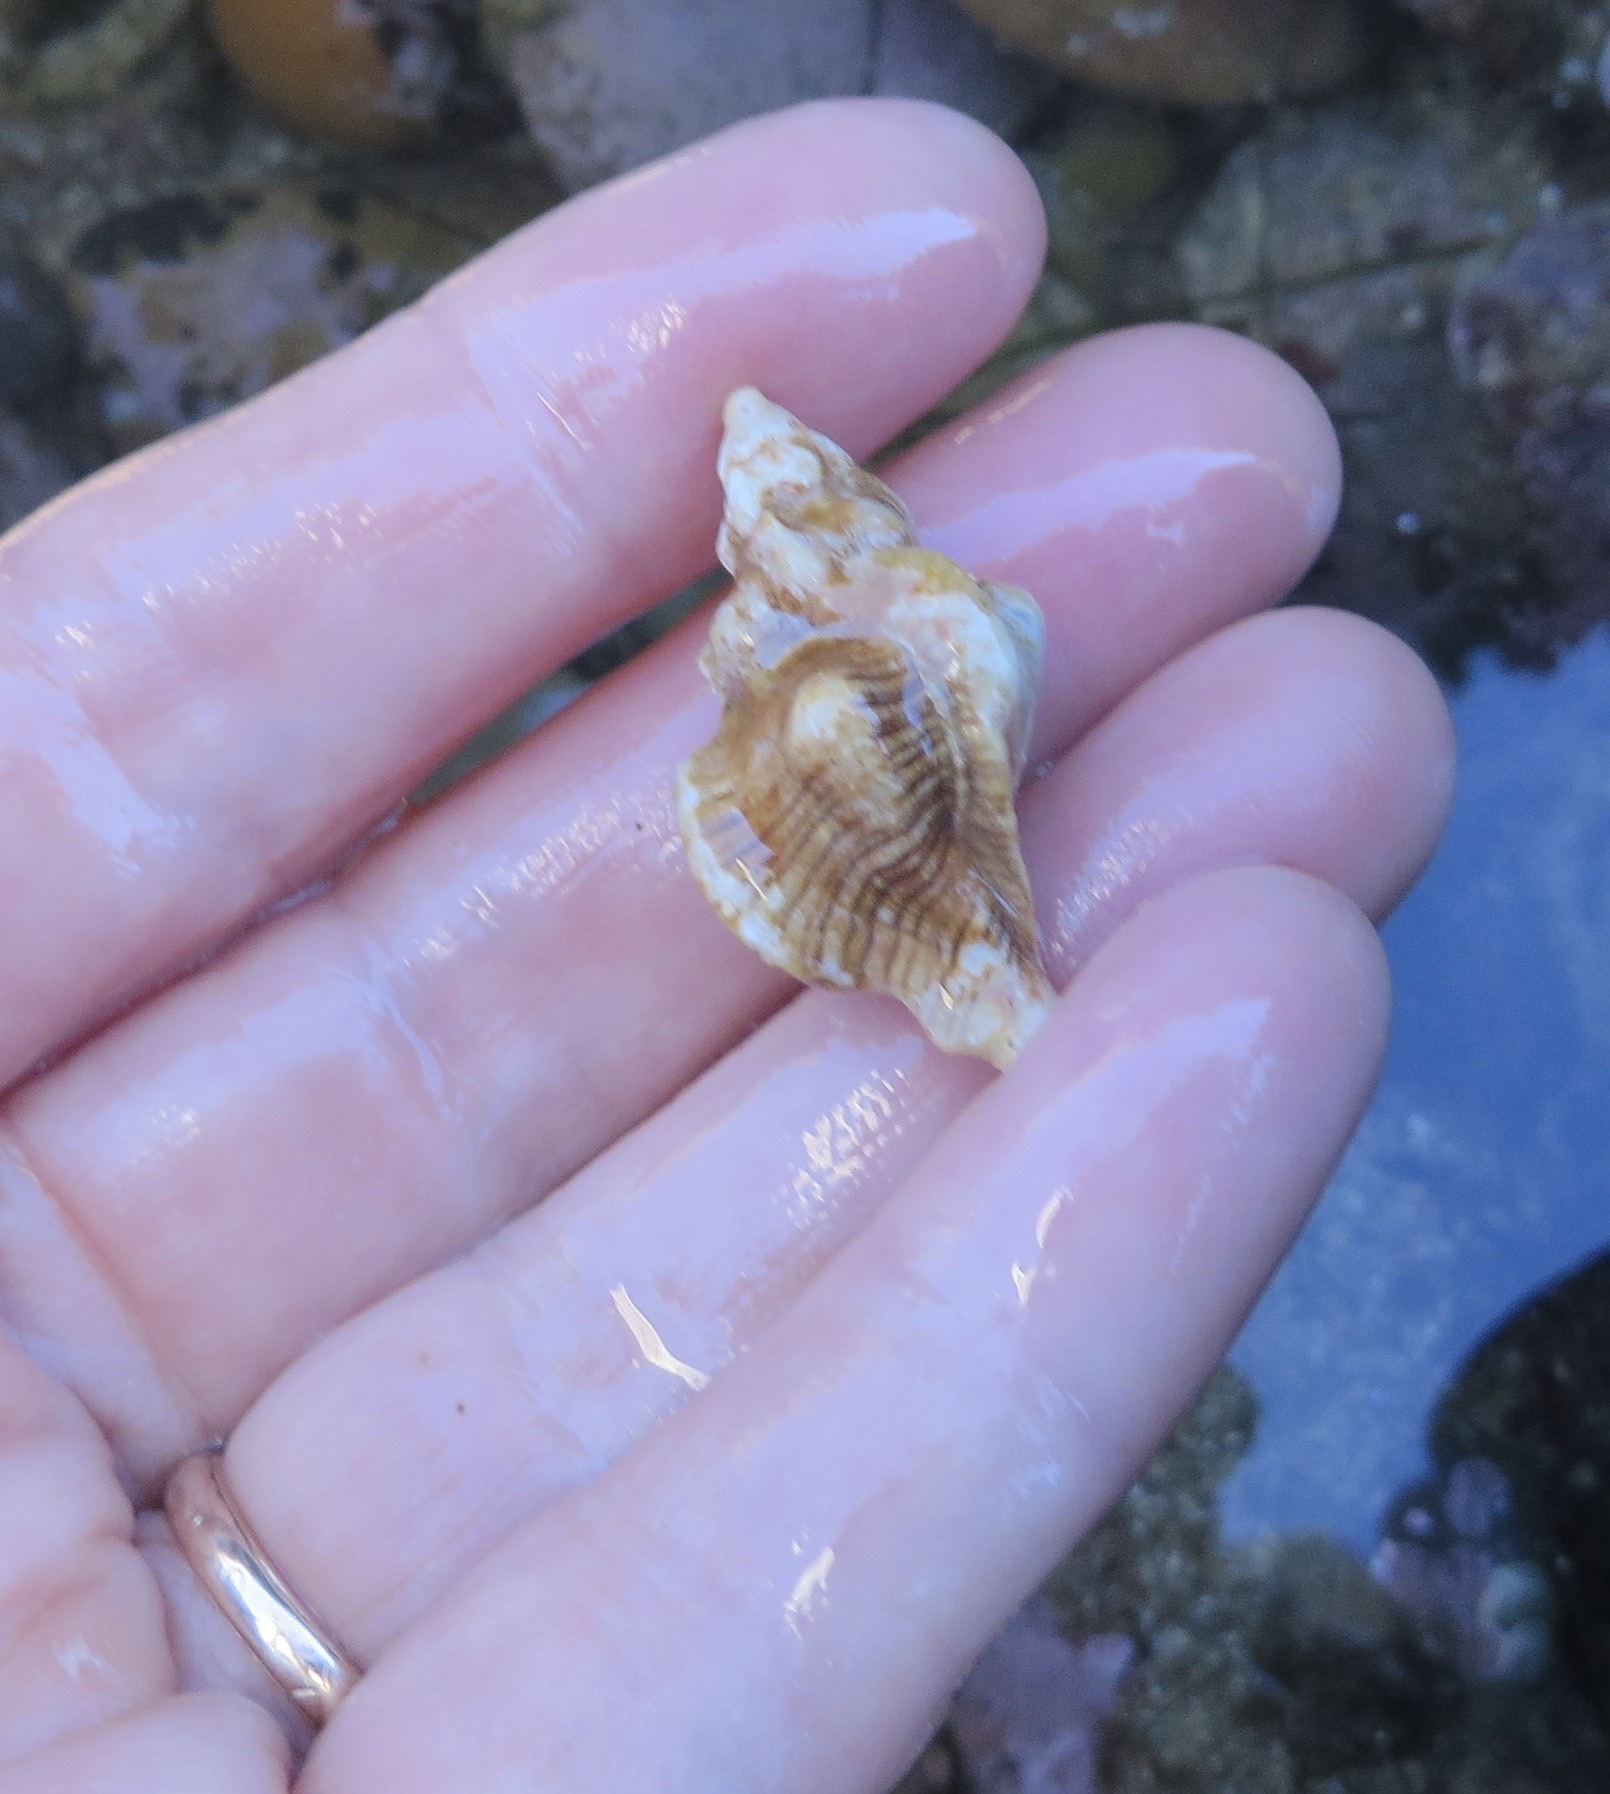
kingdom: Animalia
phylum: Mollusca
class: Gastropoda
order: Neogastropoda
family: Muricidae
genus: Pteropurpura
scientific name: Pteropurpura festiva
